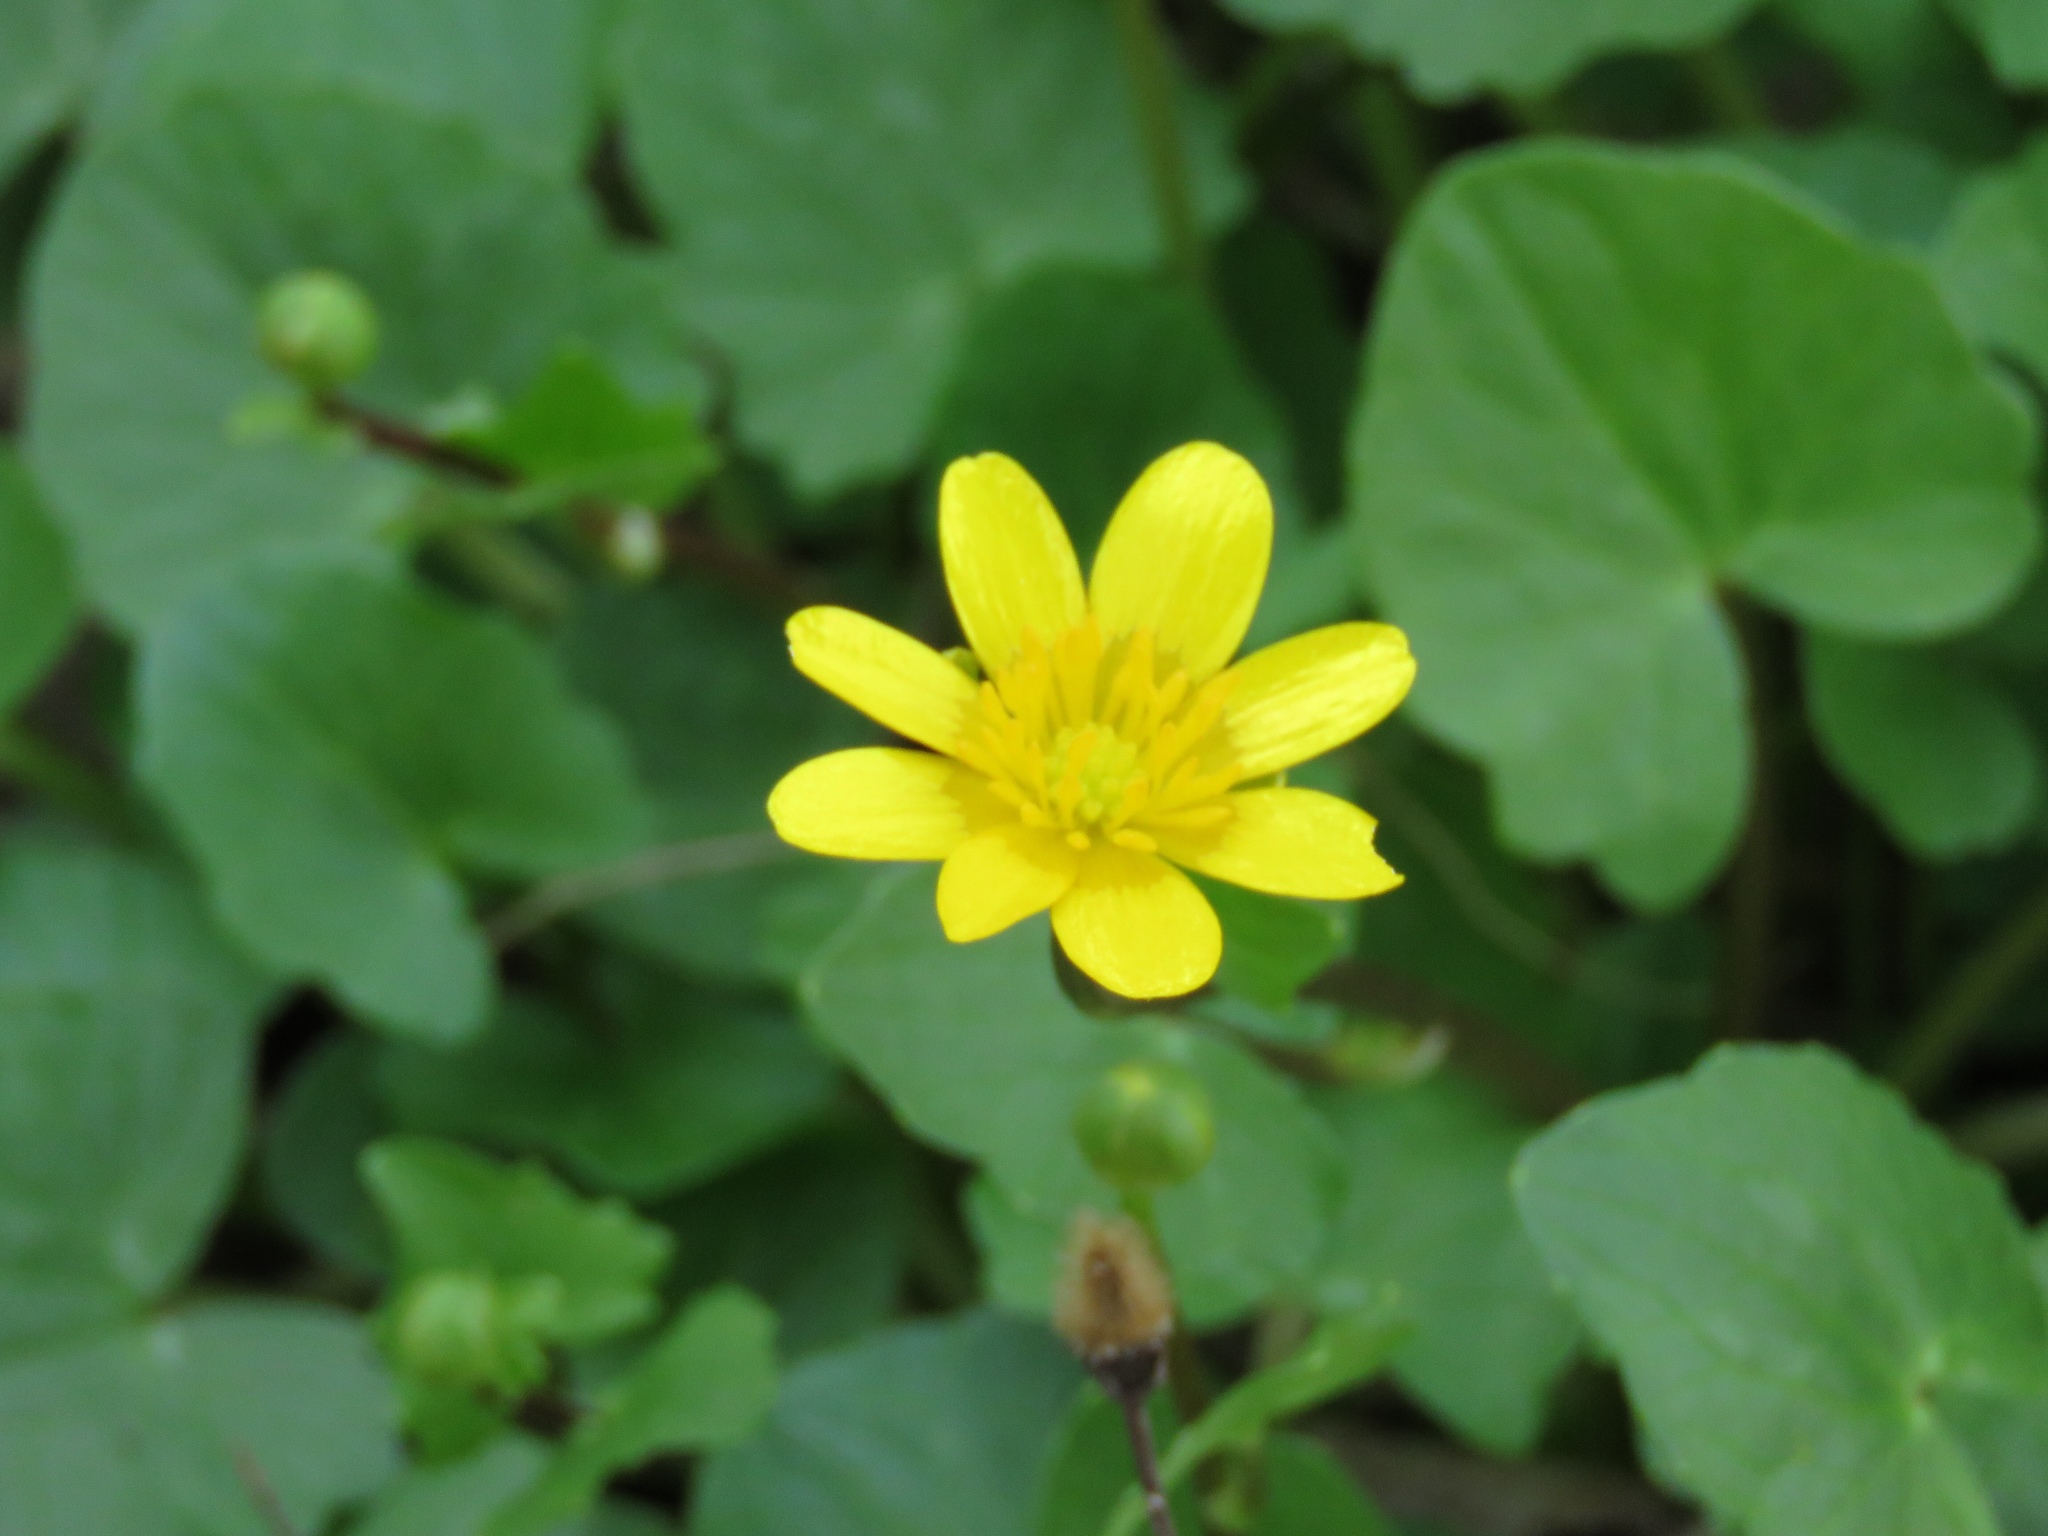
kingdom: Plantae
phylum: Tracheophyta
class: Magnoliopsida
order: Ranunculales
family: Ranunculaceae
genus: Ficaria
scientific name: Ficaria verna
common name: Lesser celandine
